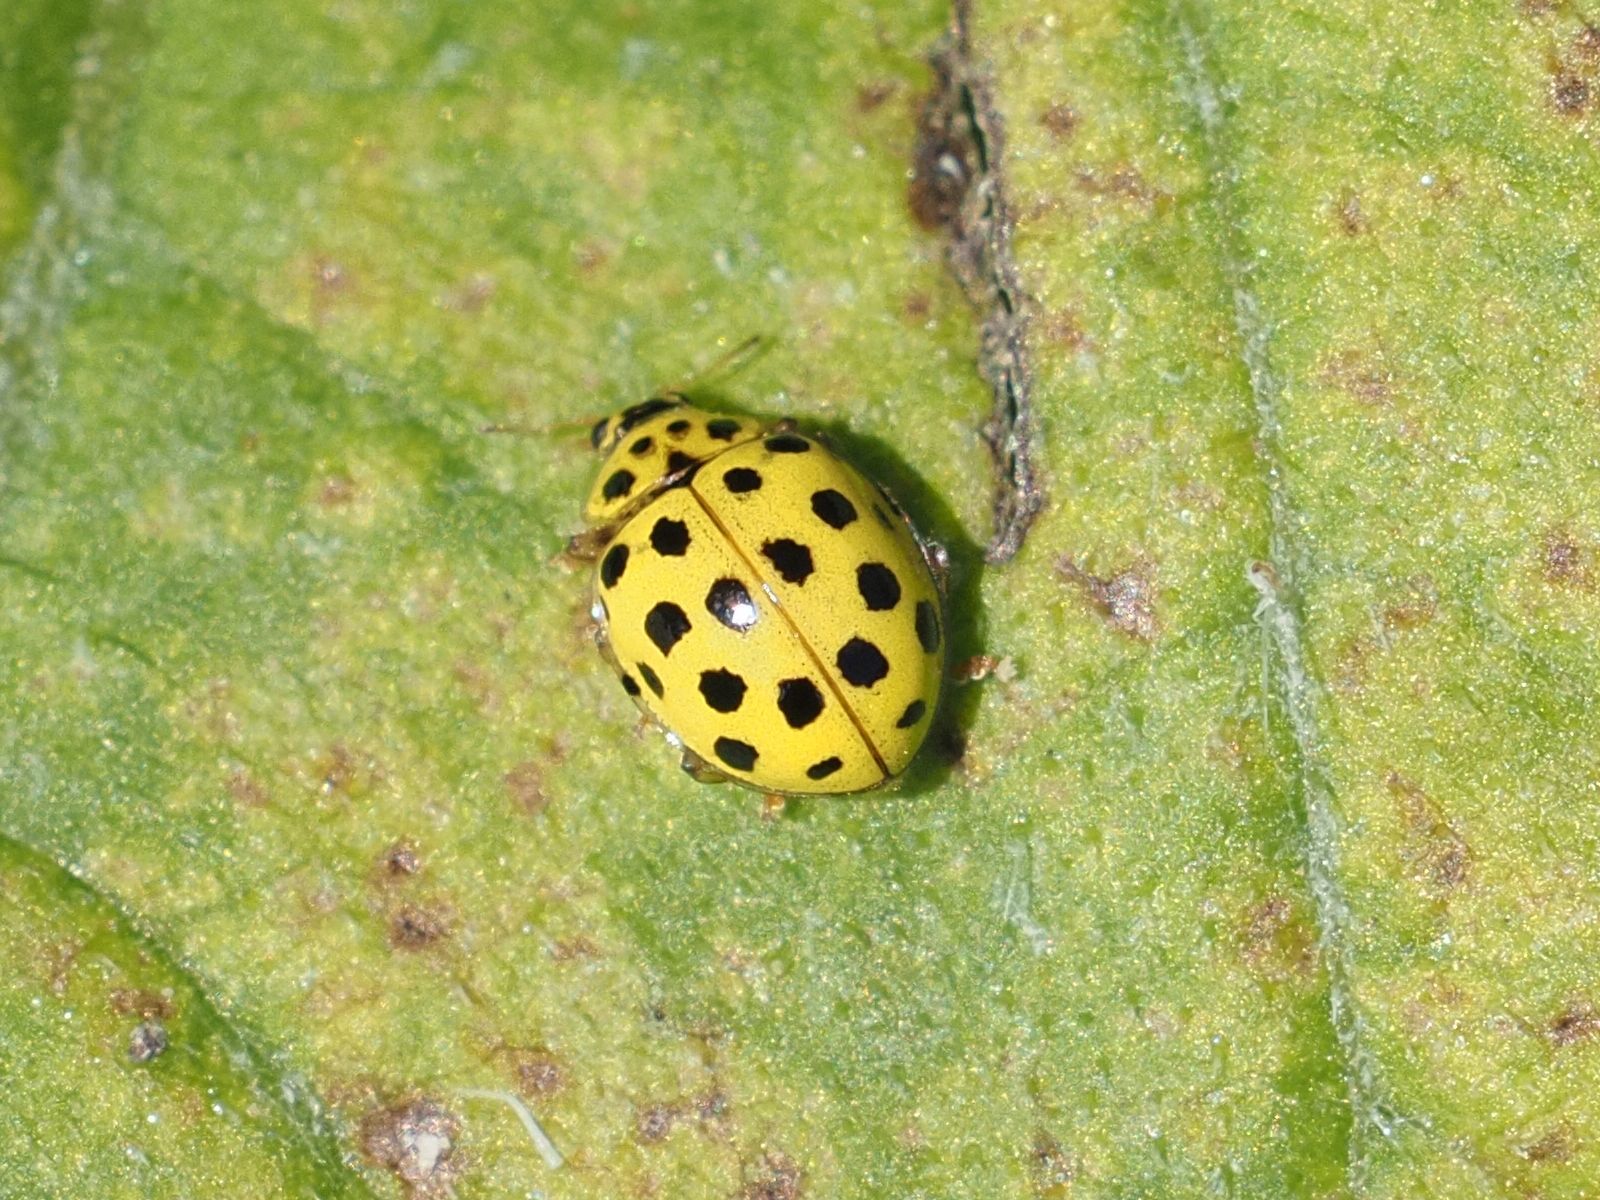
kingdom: Animalia
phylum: Arthropoda
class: Insecta
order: Coleoptera
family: Coccinellidae
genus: Psyllobora
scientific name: Psyllobora vigintiduopunctata
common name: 22-spot ladybird
